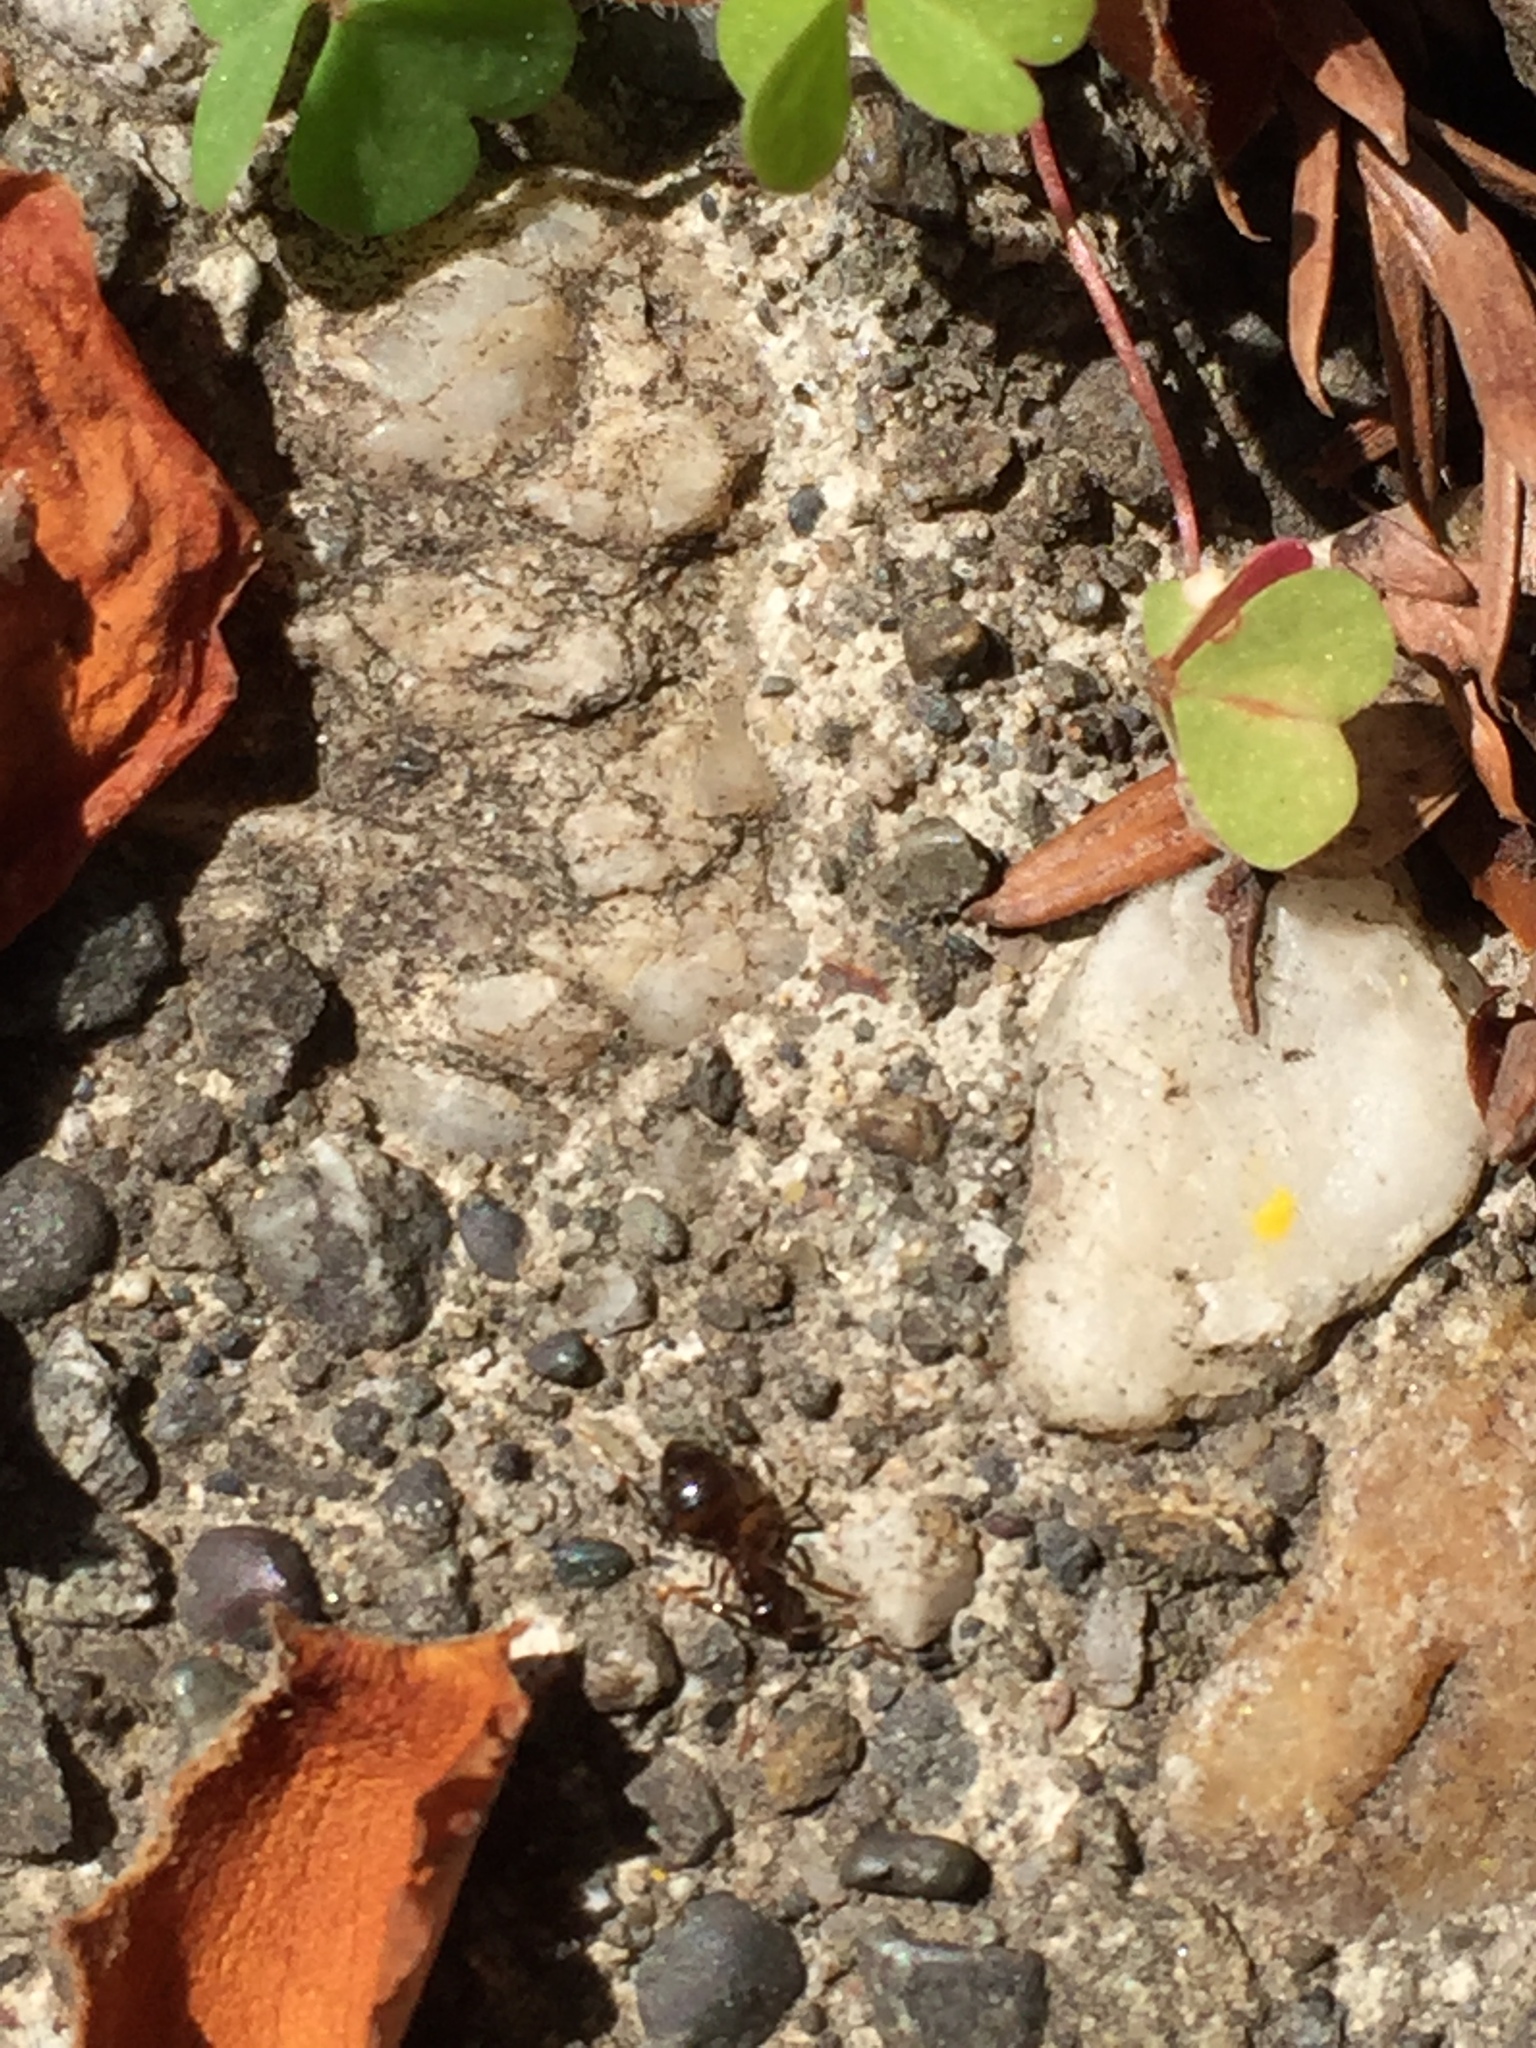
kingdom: Animalia
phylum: Arthropoda
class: Insecta
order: Hymenoptera
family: Formicidae
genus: Prenolepis
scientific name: Prenolepis imparis
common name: Small honey ant
